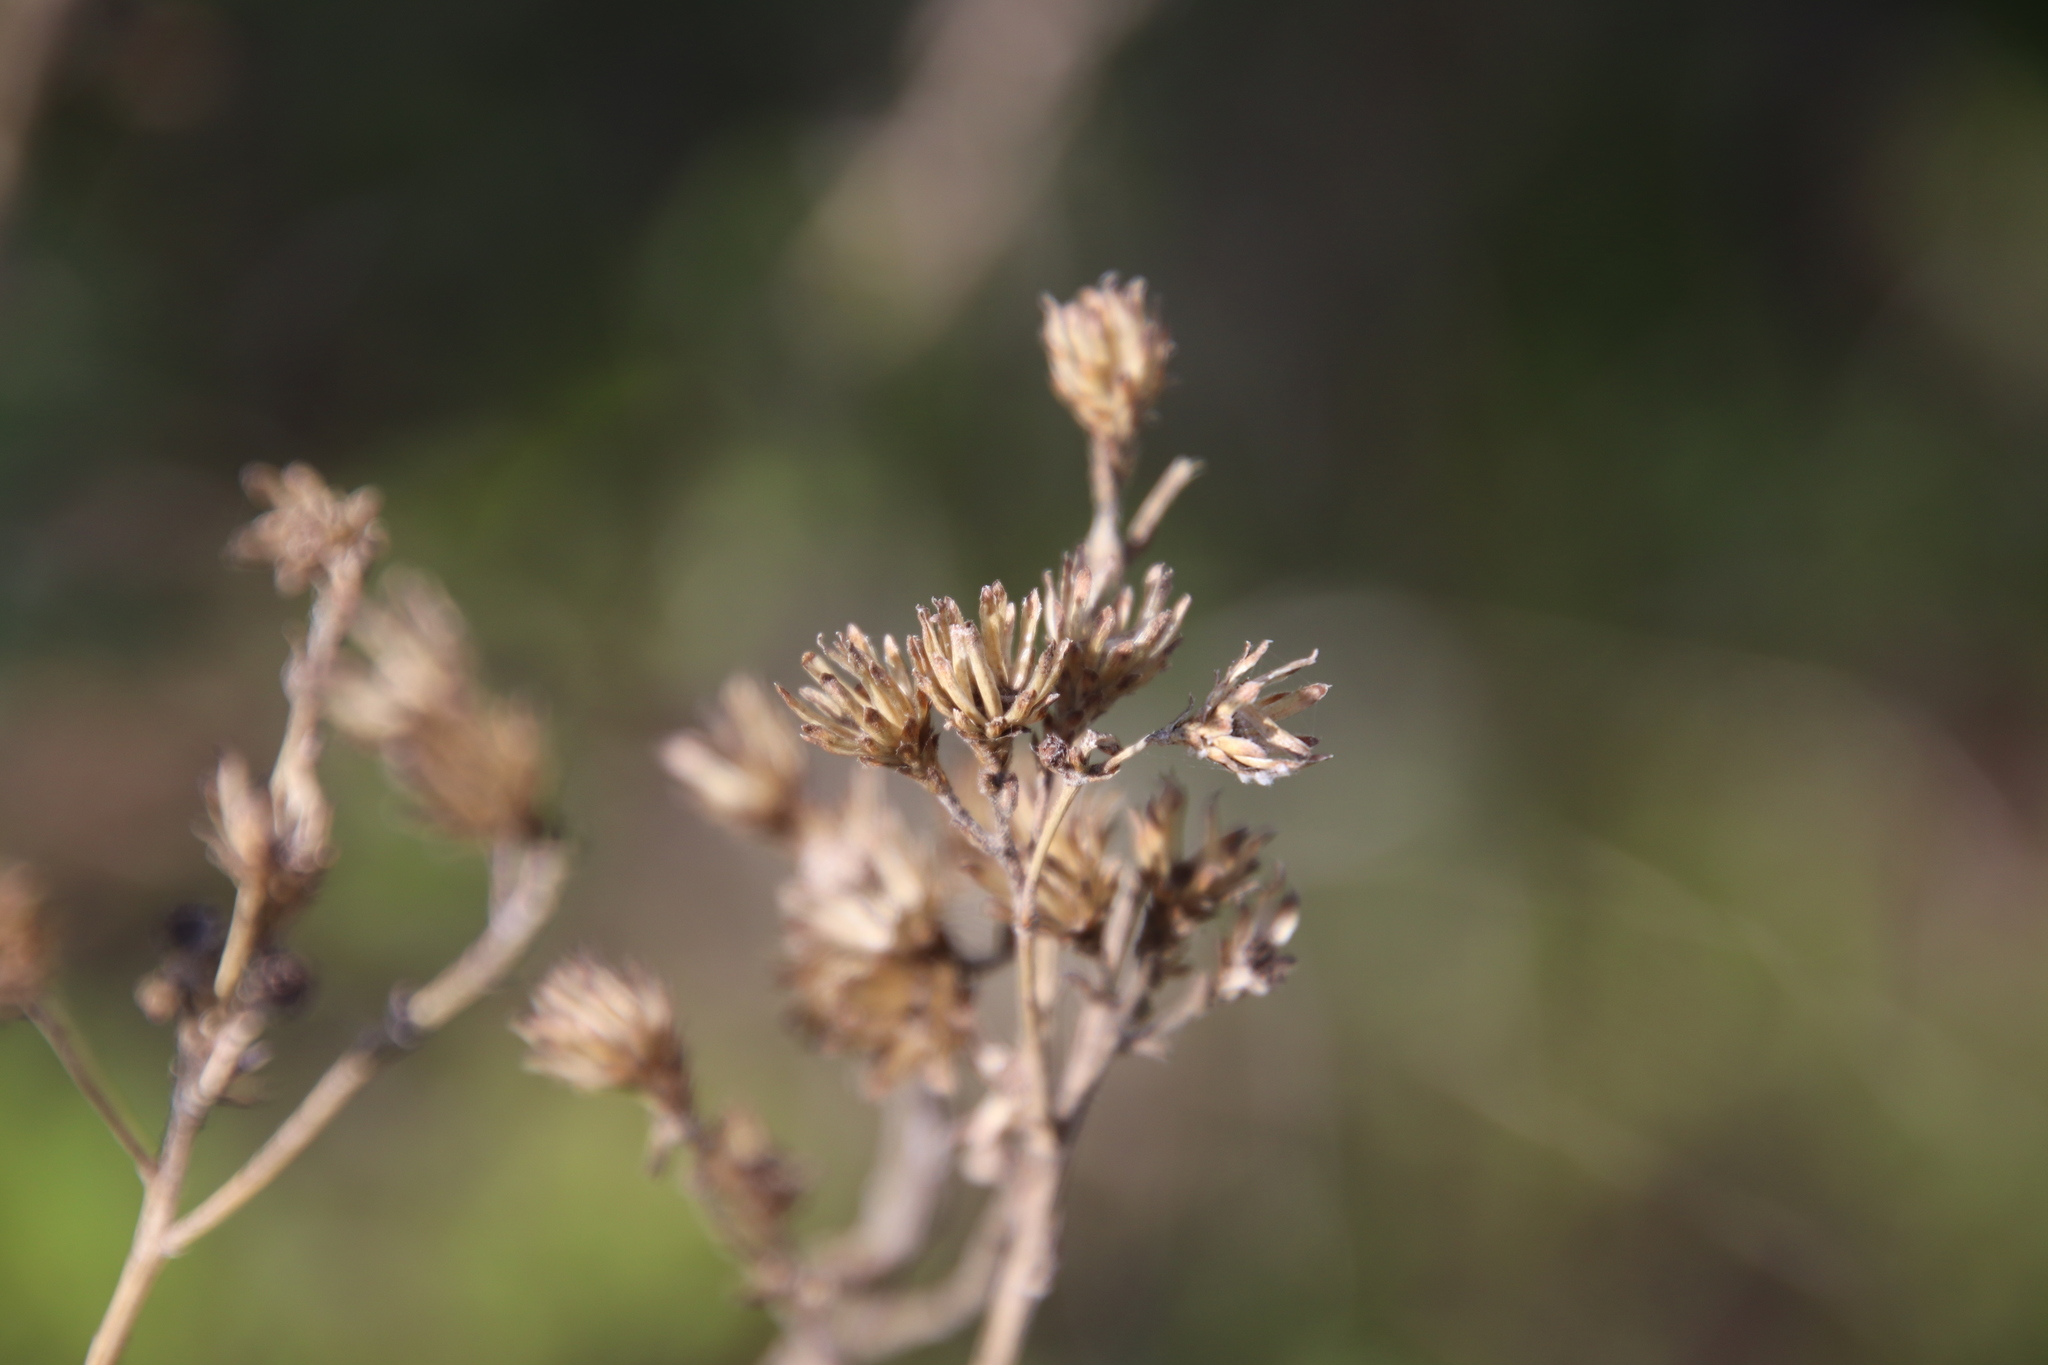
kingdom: Plantae
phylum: Tracheophyta
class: Magnoliopsida
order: Asterales
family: Asteraceae
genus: Isocoma
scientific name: Isocoma menziesii
